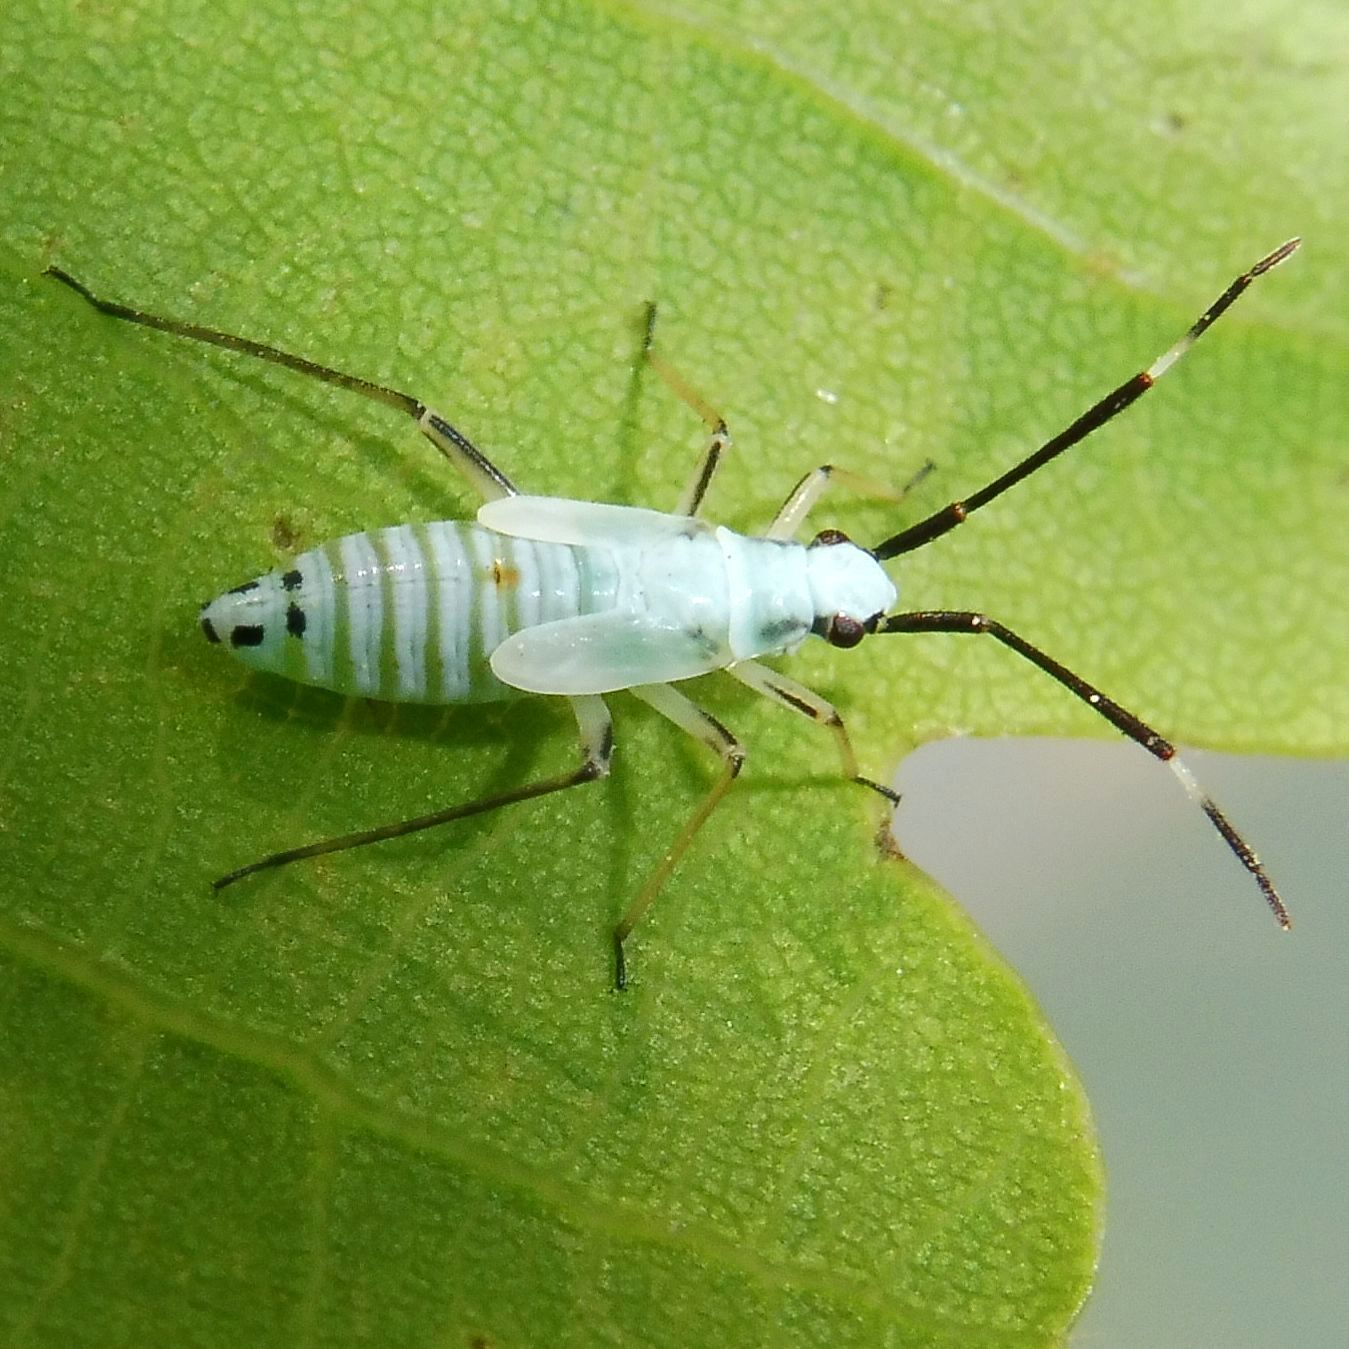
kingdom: Animalia
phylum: Arthropoda
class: Insecta
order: Hemiptera
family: Miridae
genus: Cyllecoris
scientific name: Cyllecoris histrionius
